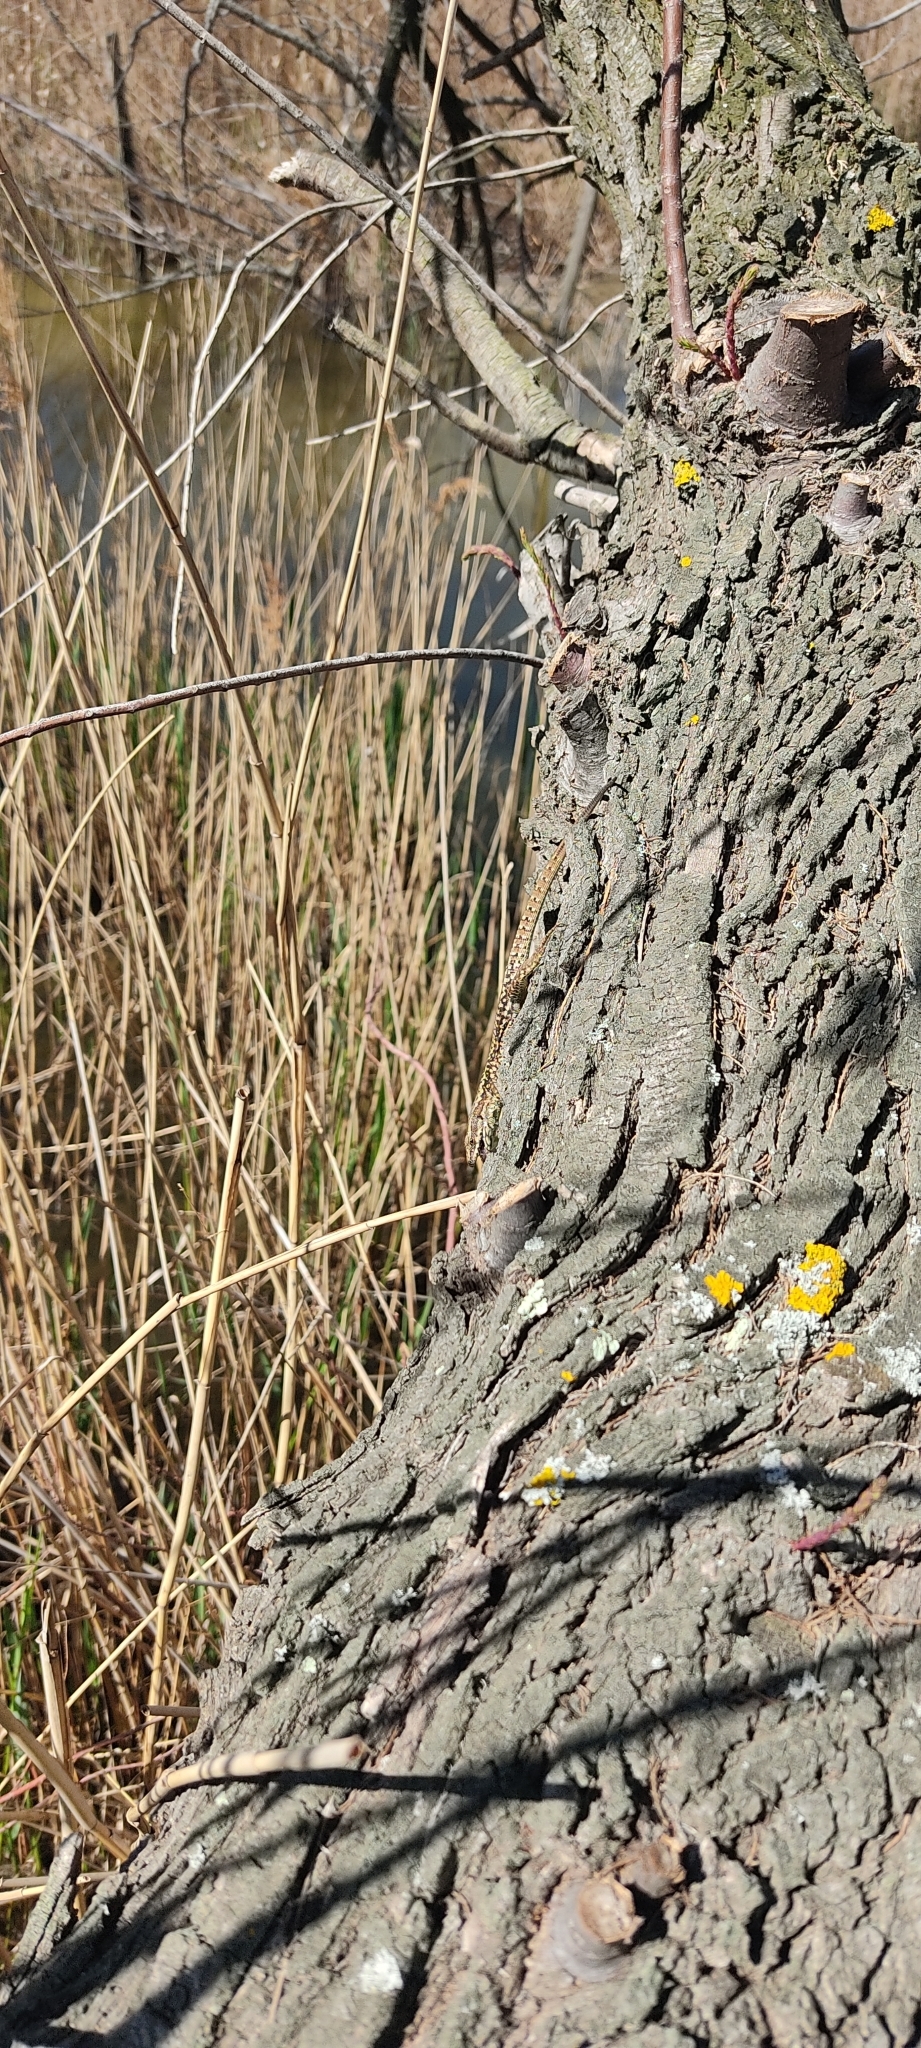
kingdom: Animalia
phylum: Chordata
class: Squamata
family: Lacertidae
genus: Podarcis
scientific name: Podarcis muralis
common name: Common wall lizard
